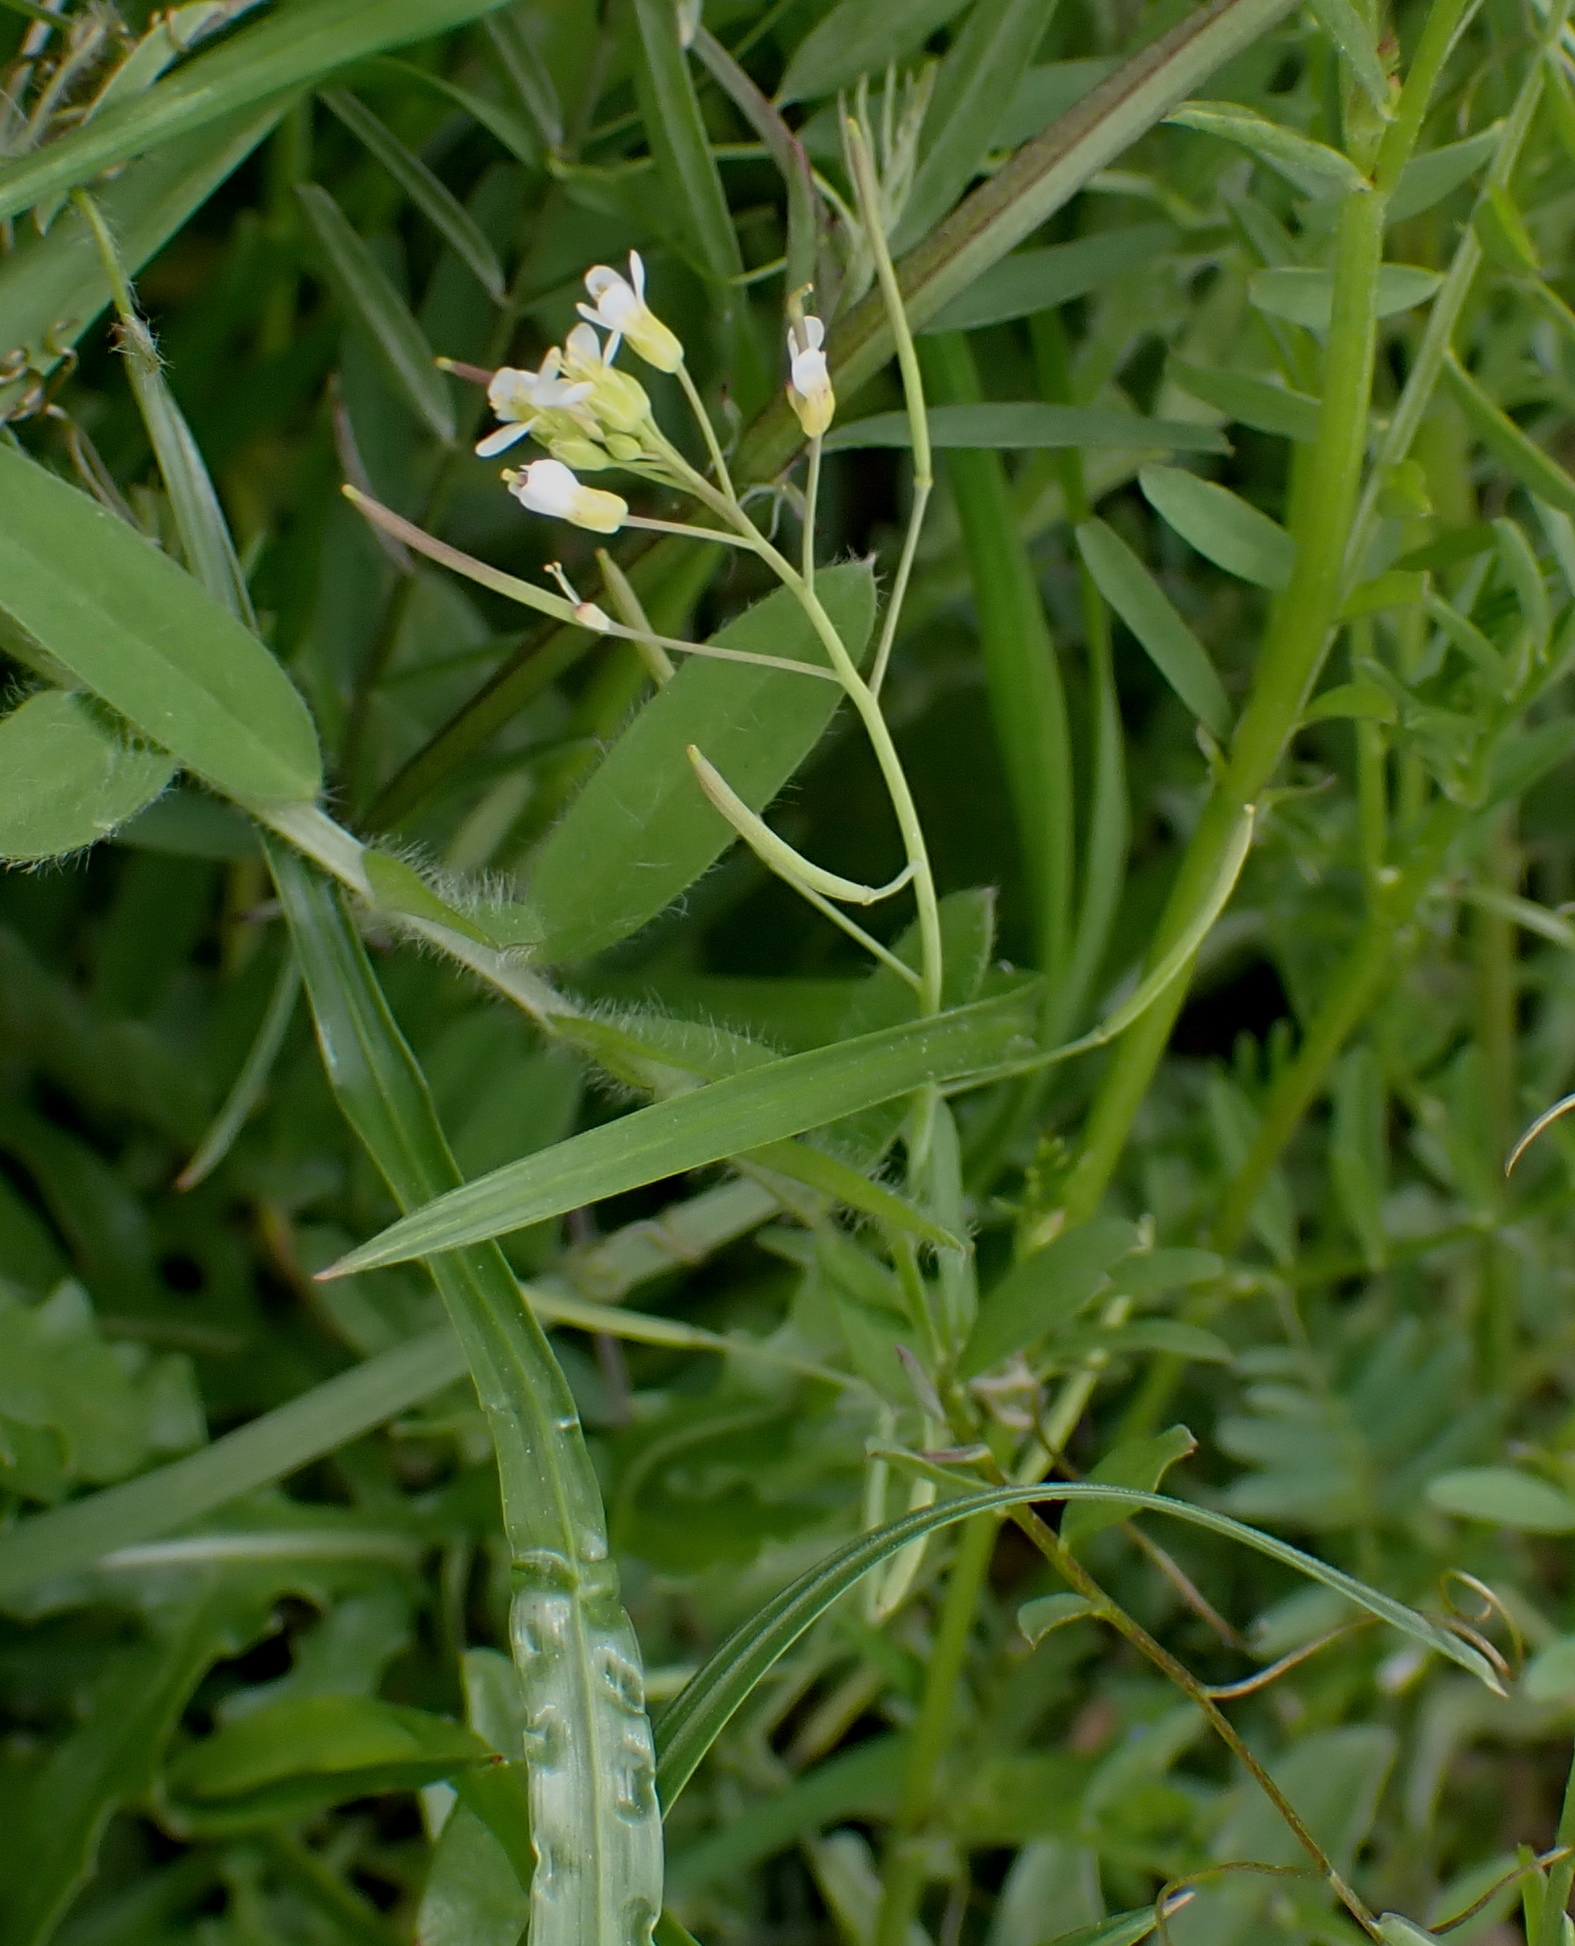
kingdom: Plantae
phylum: Tracheophyta
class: Magnoliopsida
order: Brassicales
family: Brassicaceae
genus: Arabidopsis
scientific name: Arabidopsis thaliana
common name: Thale cress
